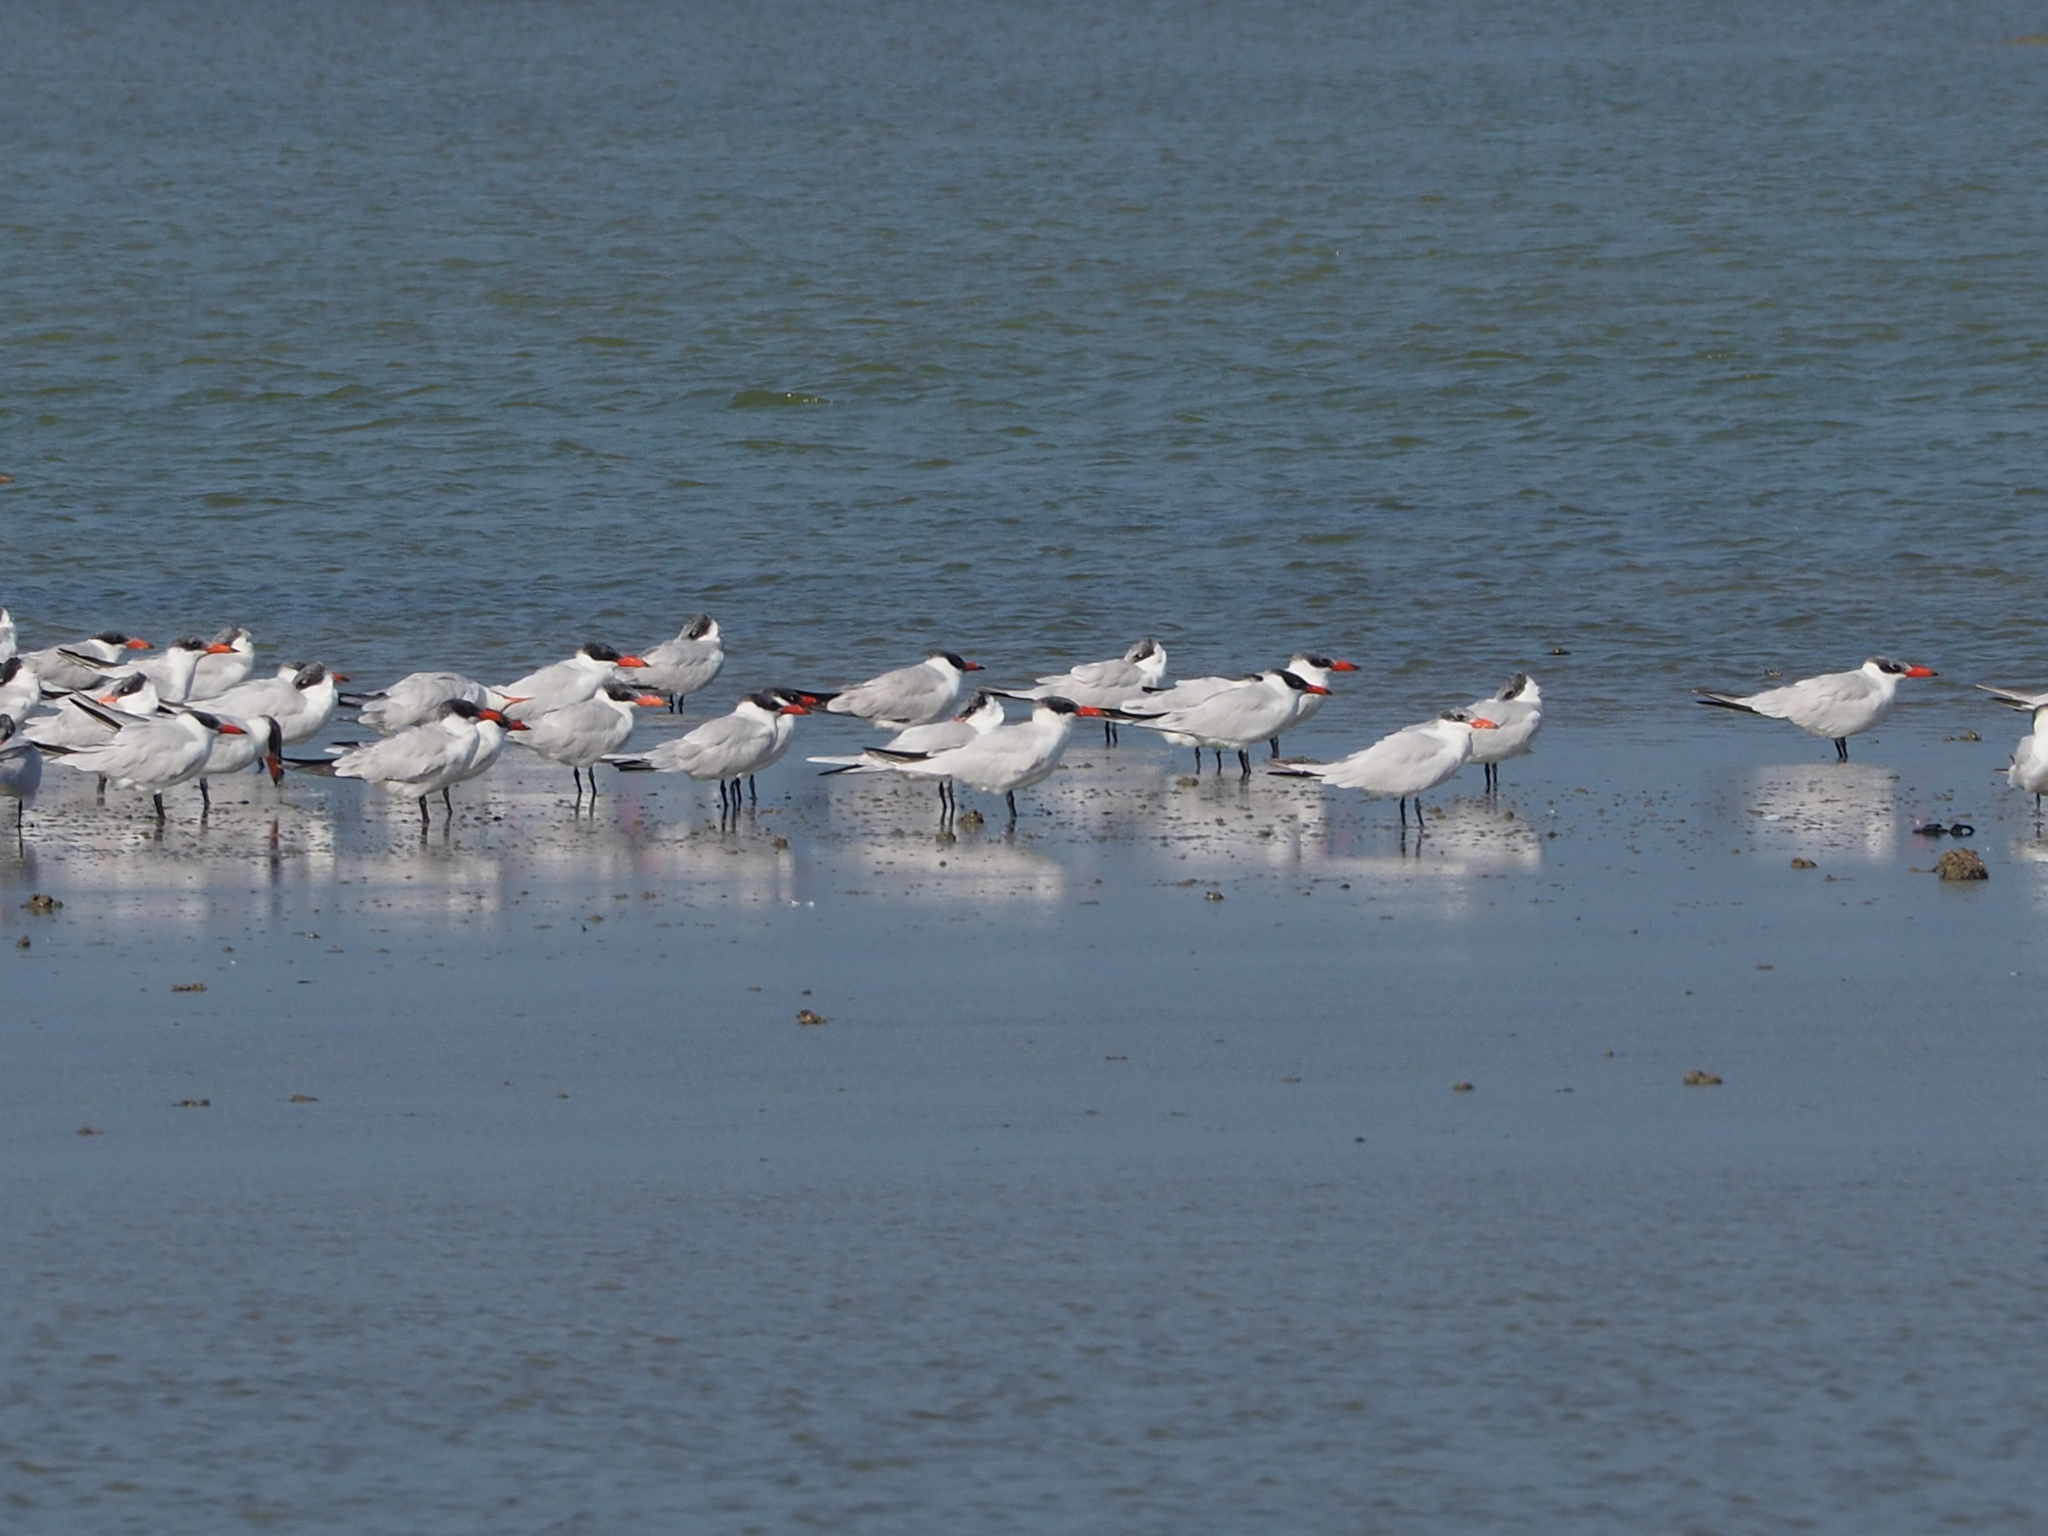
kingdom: Animalia
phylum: Chordata
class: Aves
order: Charadriiformes
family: Laridae
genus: Hydroprogne
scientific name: Hydroprogne caspia
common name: Caspian tern
